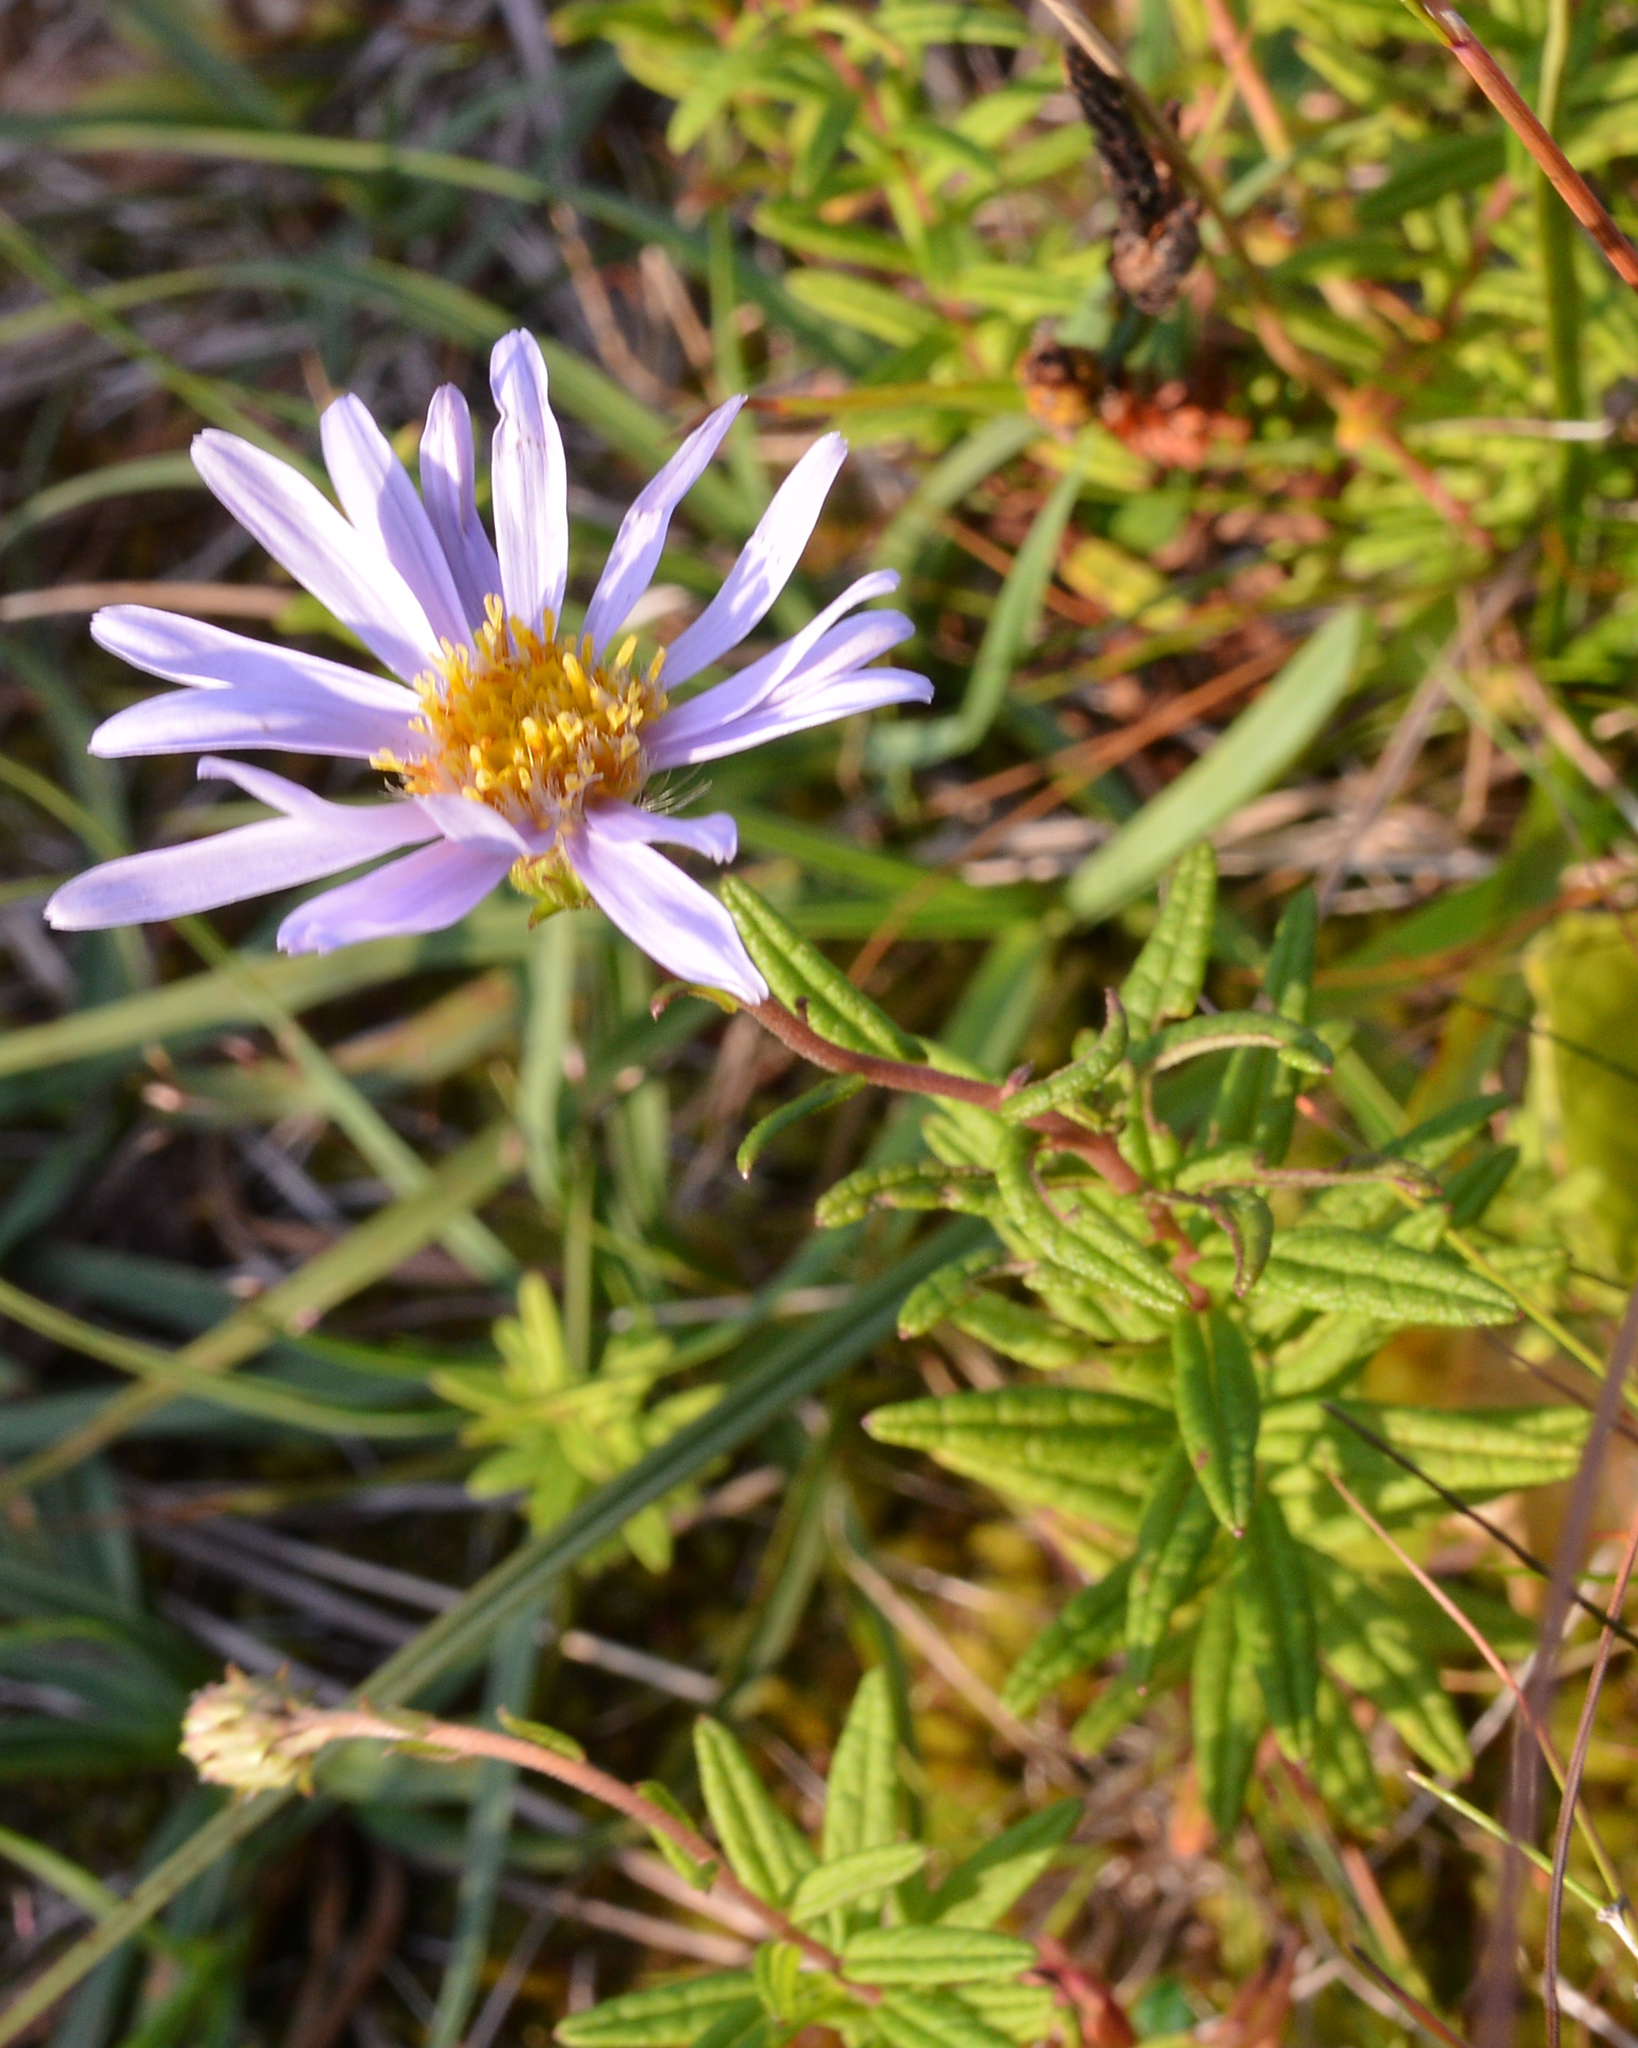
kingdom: Plantae
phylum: Tracheophyta
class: Magnoliopsida
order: Asterales
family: Asteraceae
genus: Oclemena
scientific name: Oclemena nemoralis
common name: Bog aster
